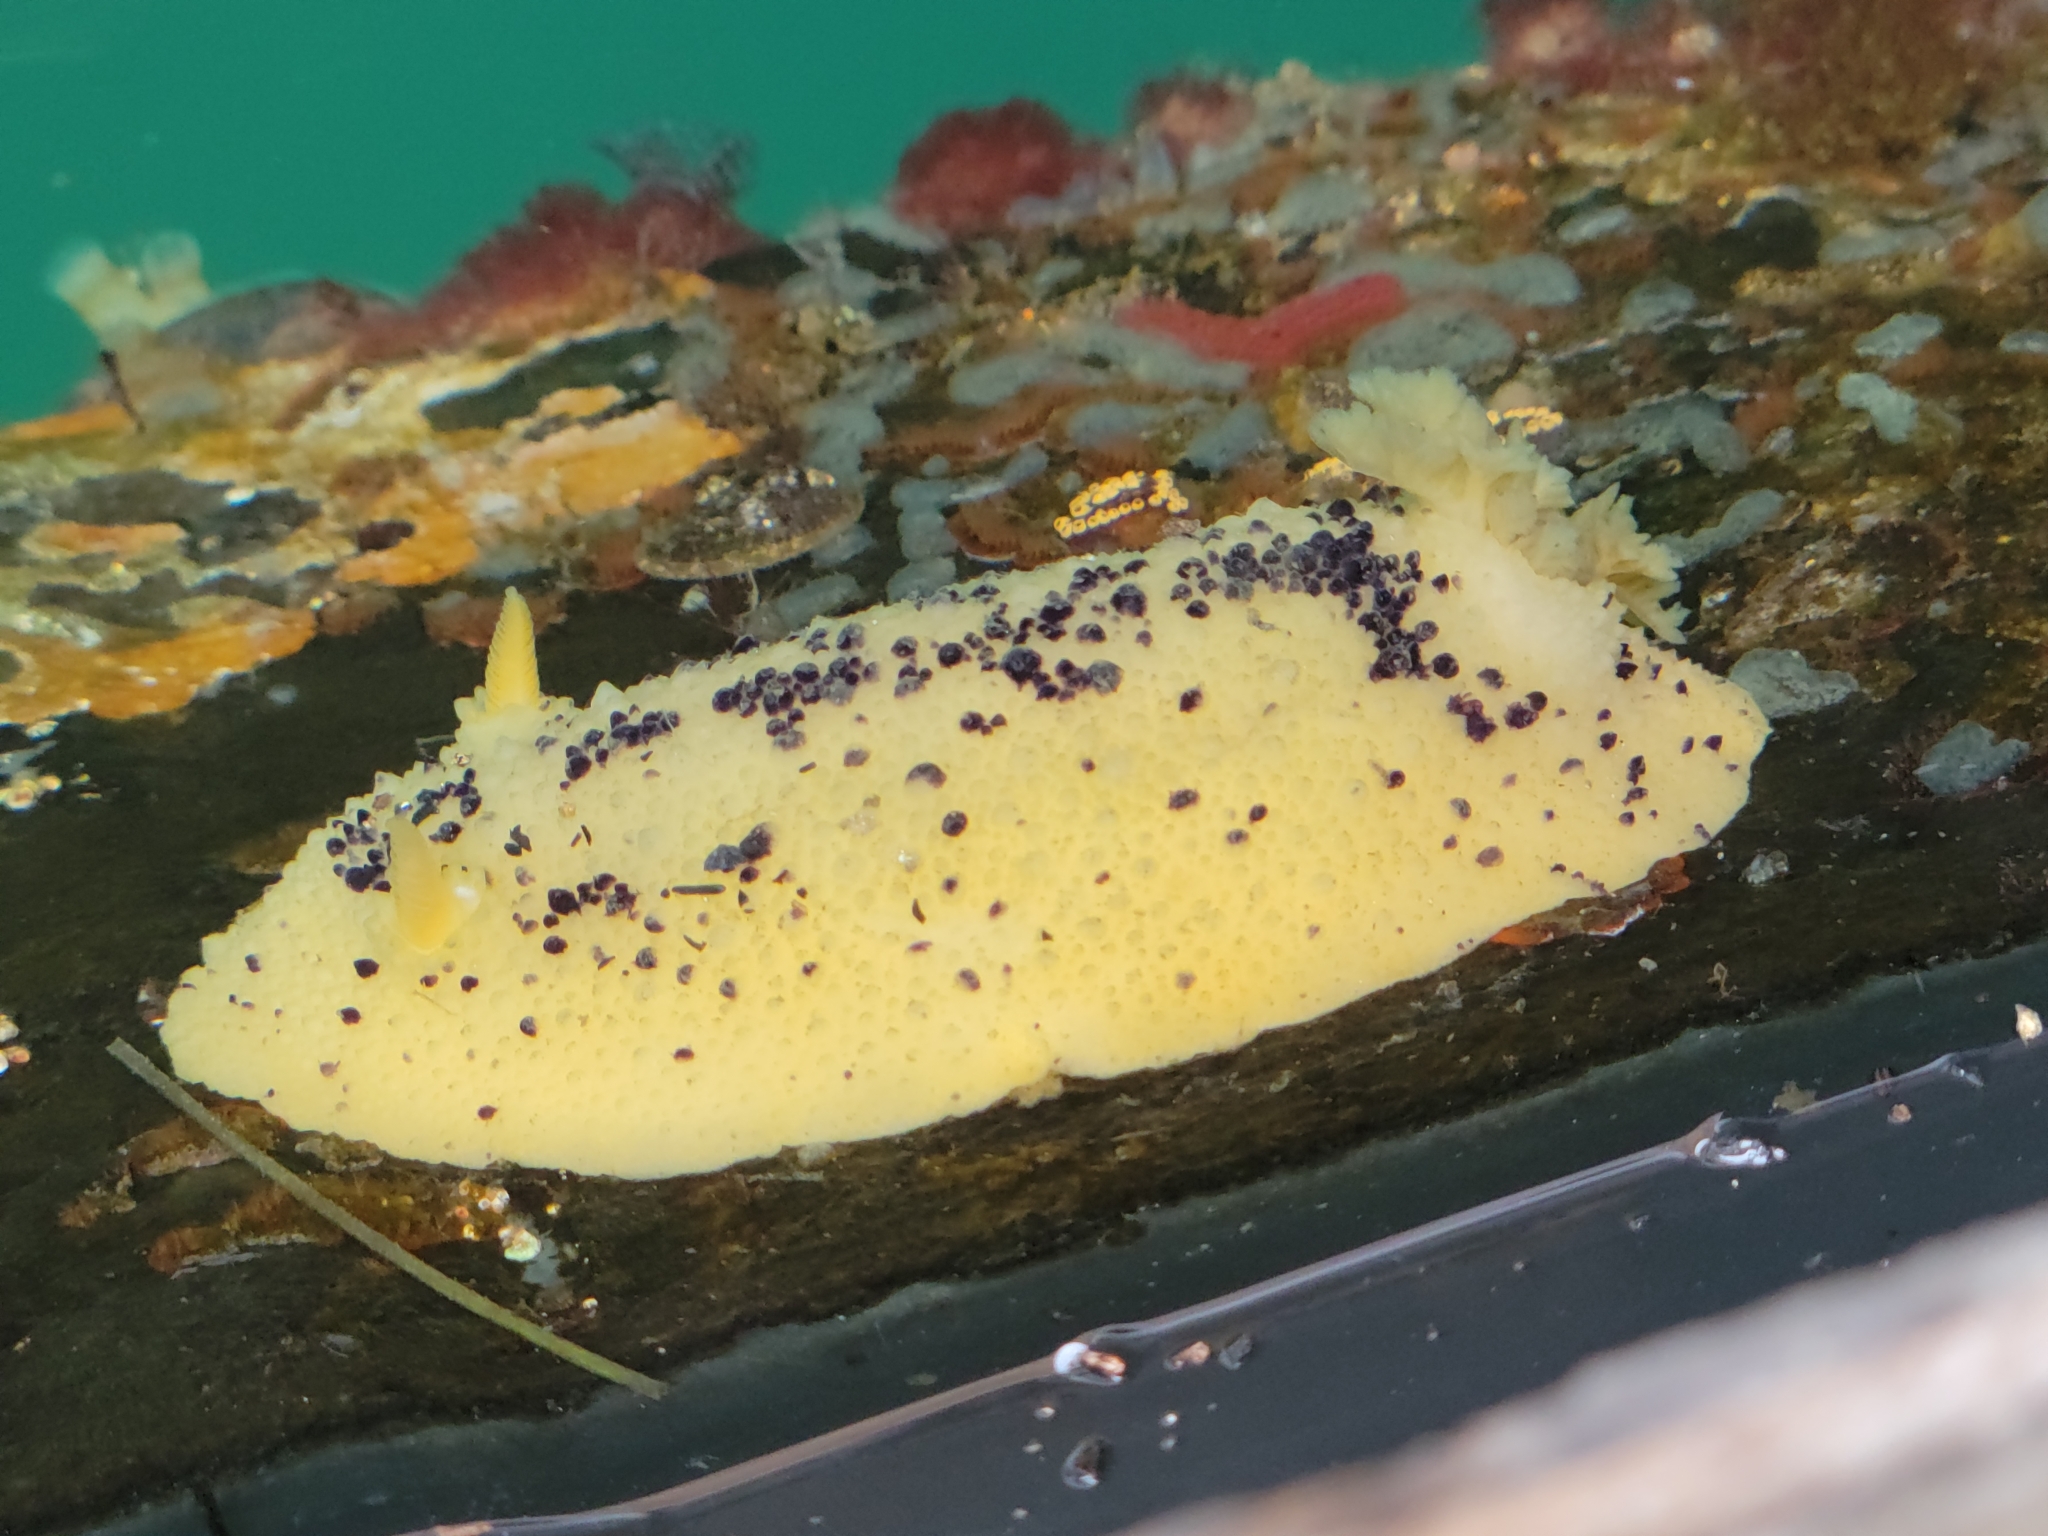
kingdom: Animalia
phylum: Mollusca
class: Gastropoda
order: Nudibranchia
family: Dorididae
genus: Doris
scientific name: Doris montereyensis
